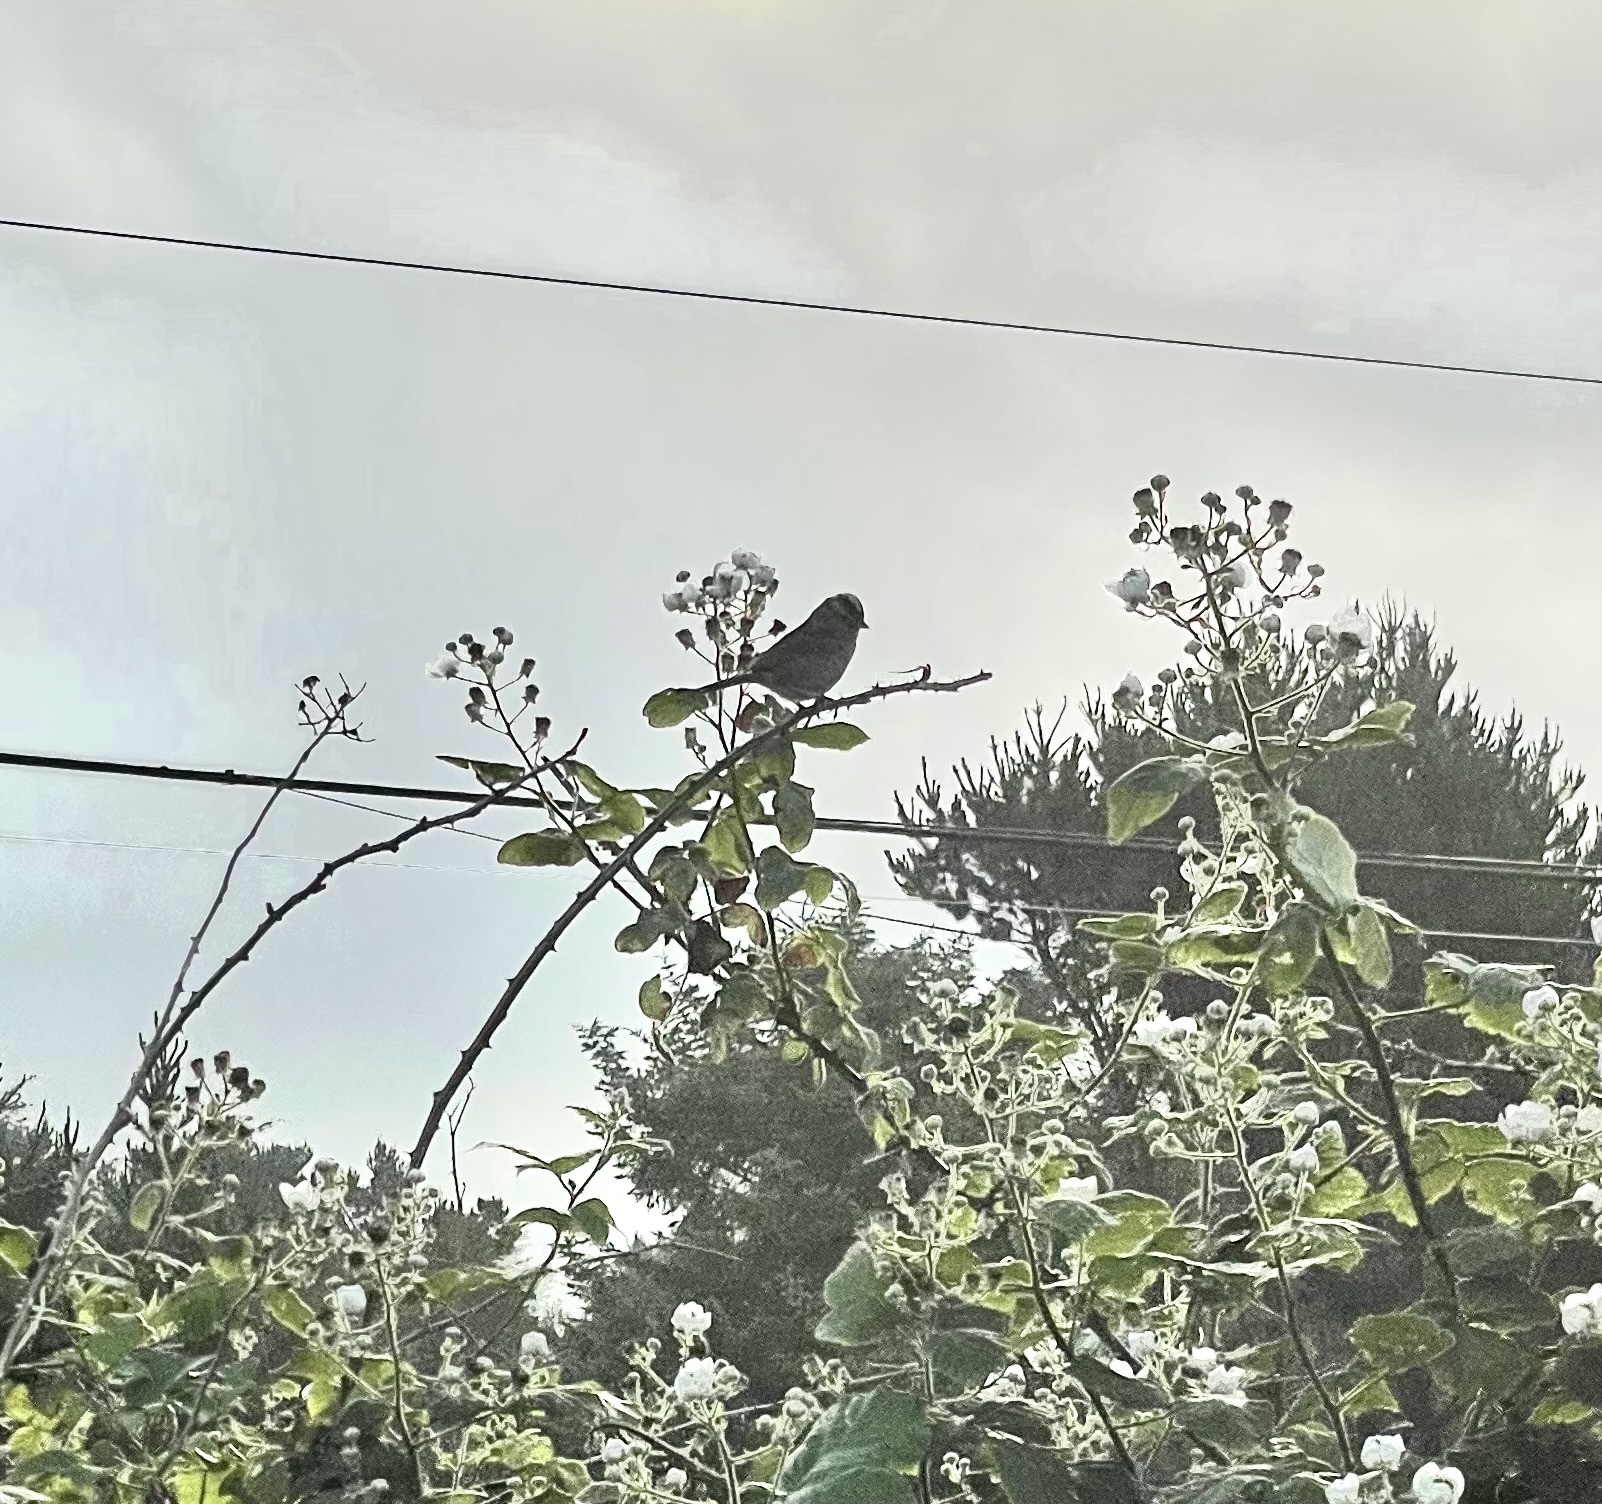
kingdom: Animalia
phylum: Chordata
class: Aves
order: Passeriformes
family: Passerellidae
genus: Zonotrichia
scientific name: Zonotrichia leucophrys
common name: White-crowned sparrow
